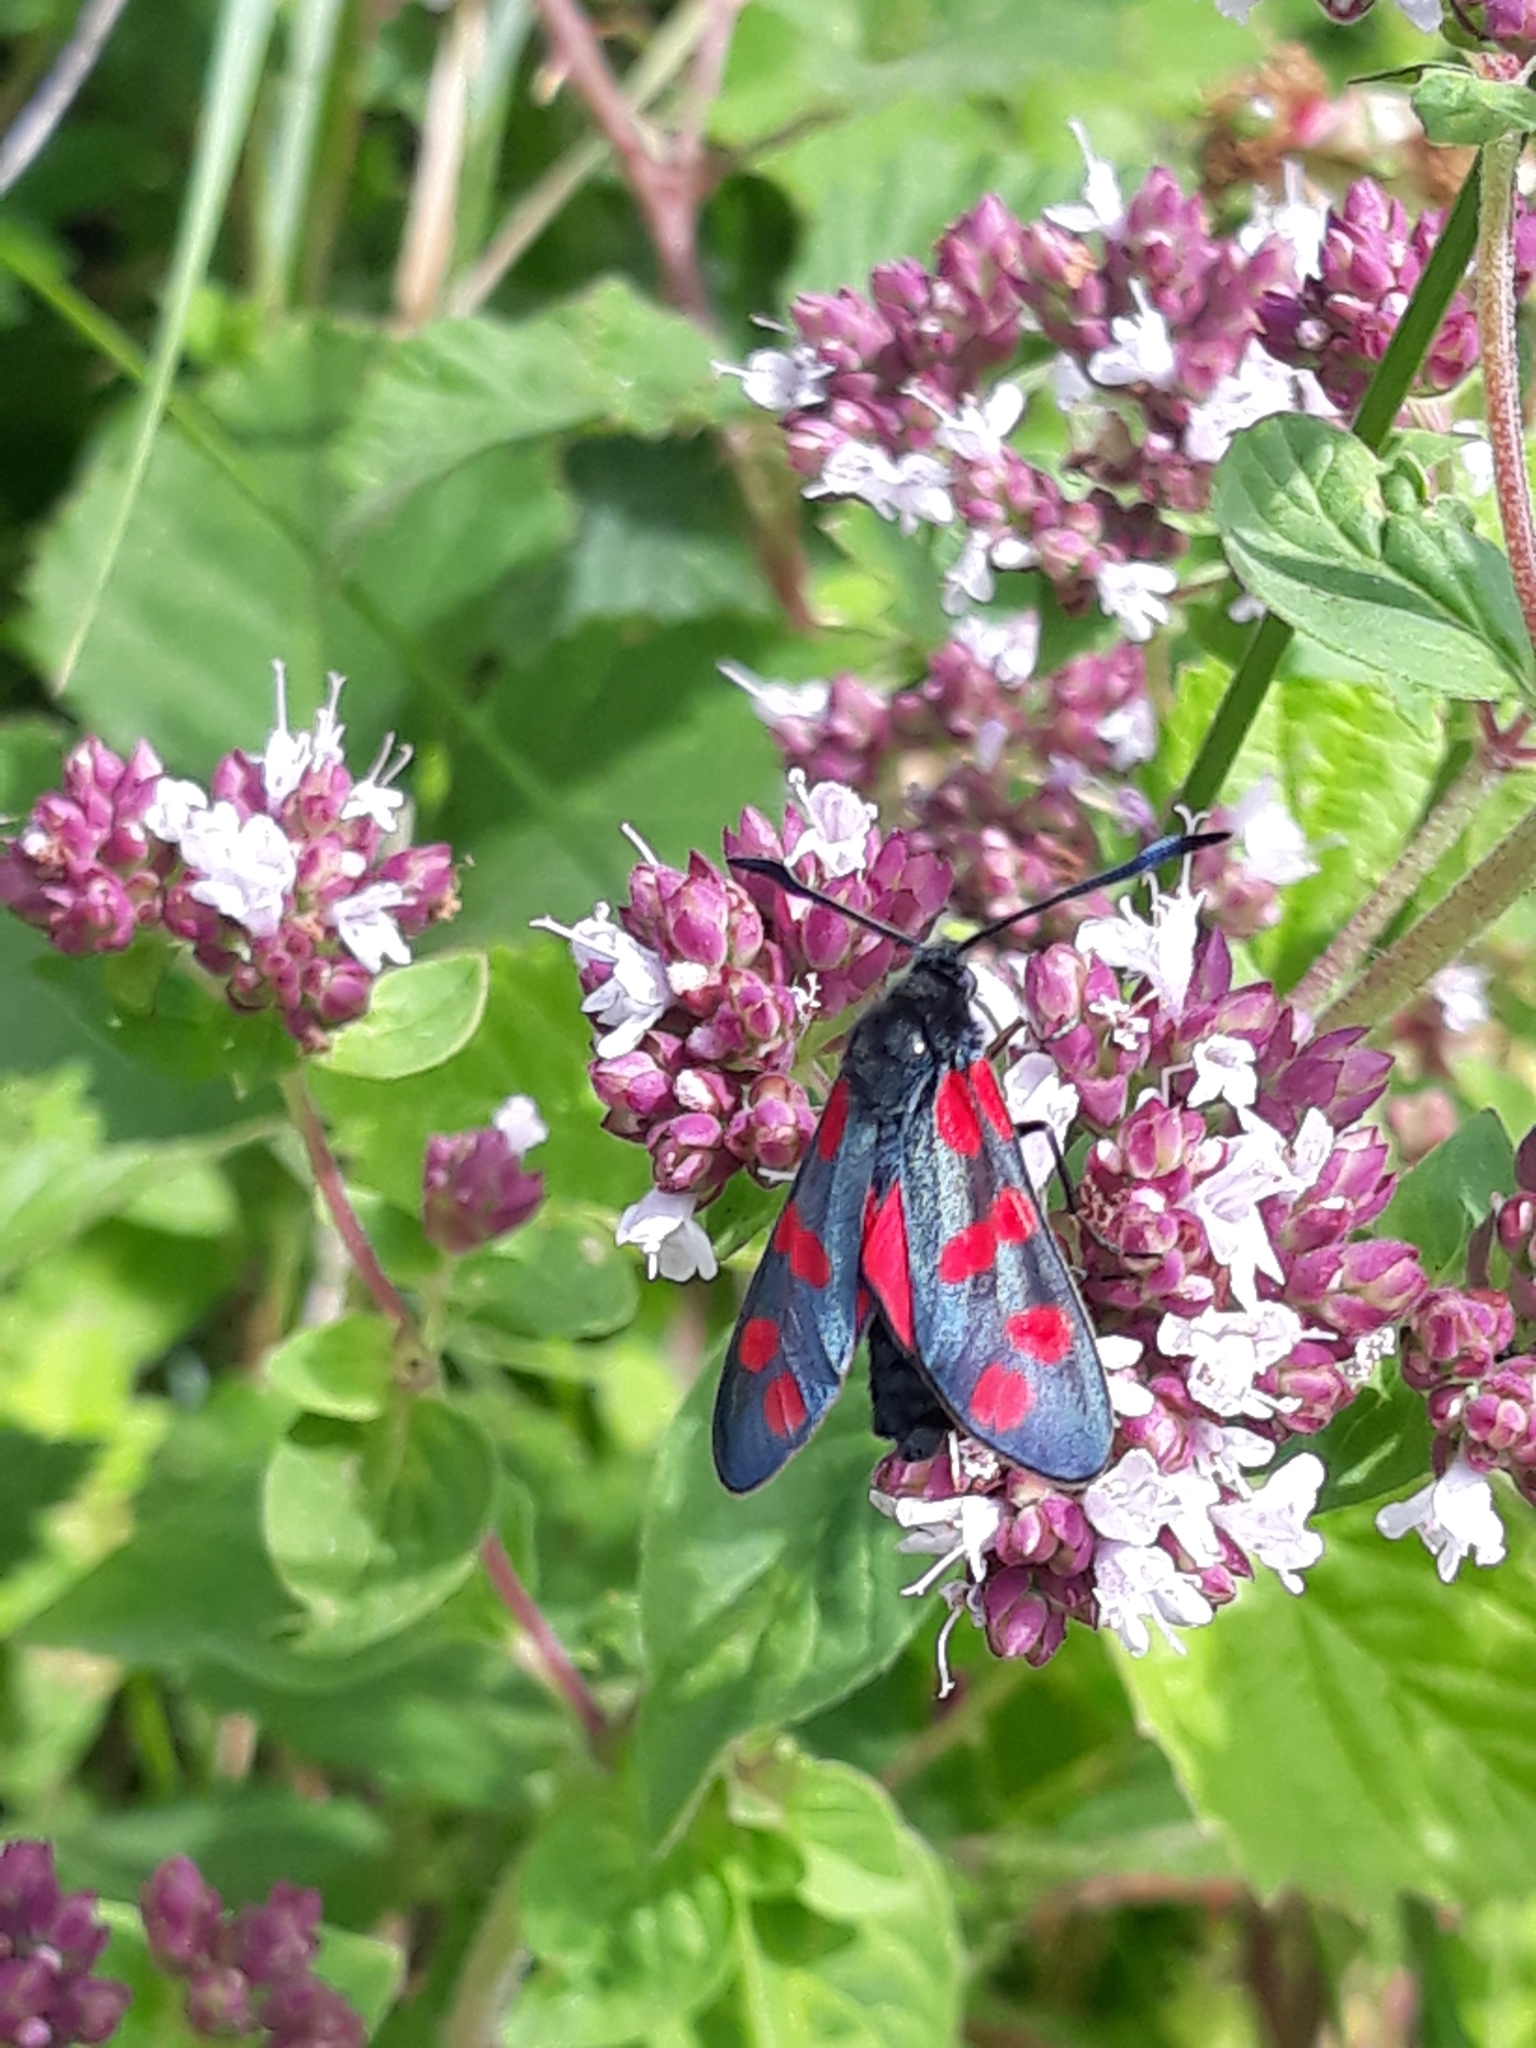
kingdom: Animalia
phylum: Arthropoda
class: Insecta
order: Lepidoptera
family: Zygaenidae
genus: Zygaena
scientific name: Zygaena filipendulae
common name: Six-spot burnet
